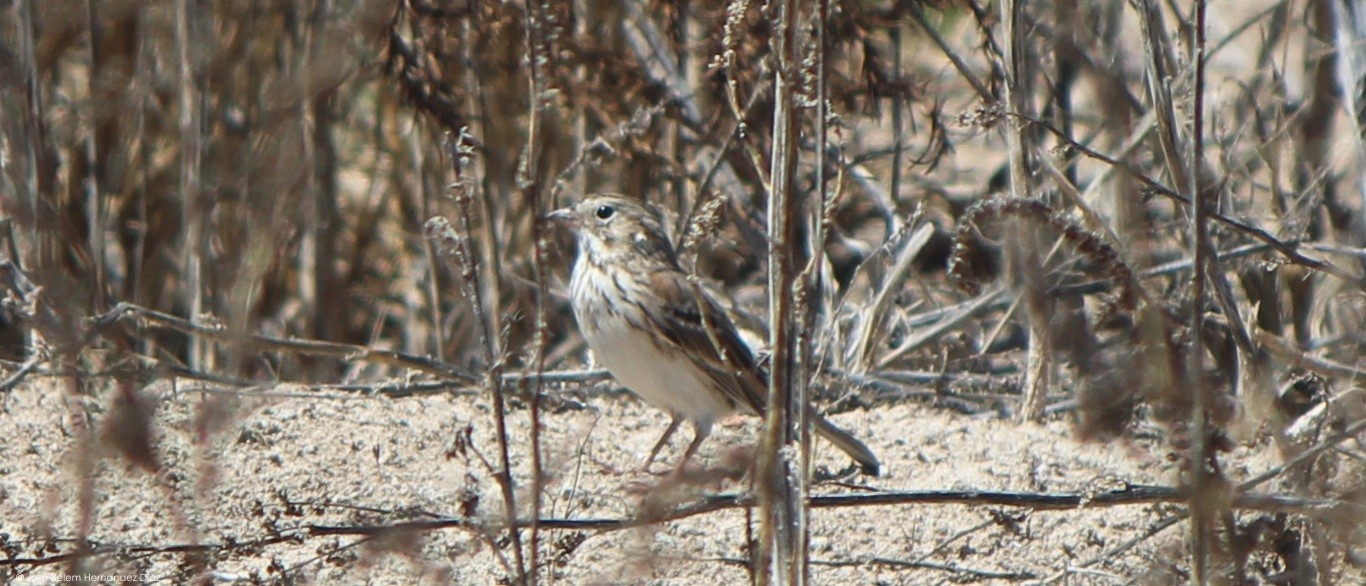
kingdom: Animalia
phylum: Chordata
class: Aves
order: Passeriformes
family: Passerellidae
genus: Pooecetes
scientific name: Pooecetes gramineus
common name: Vesper sparrow
